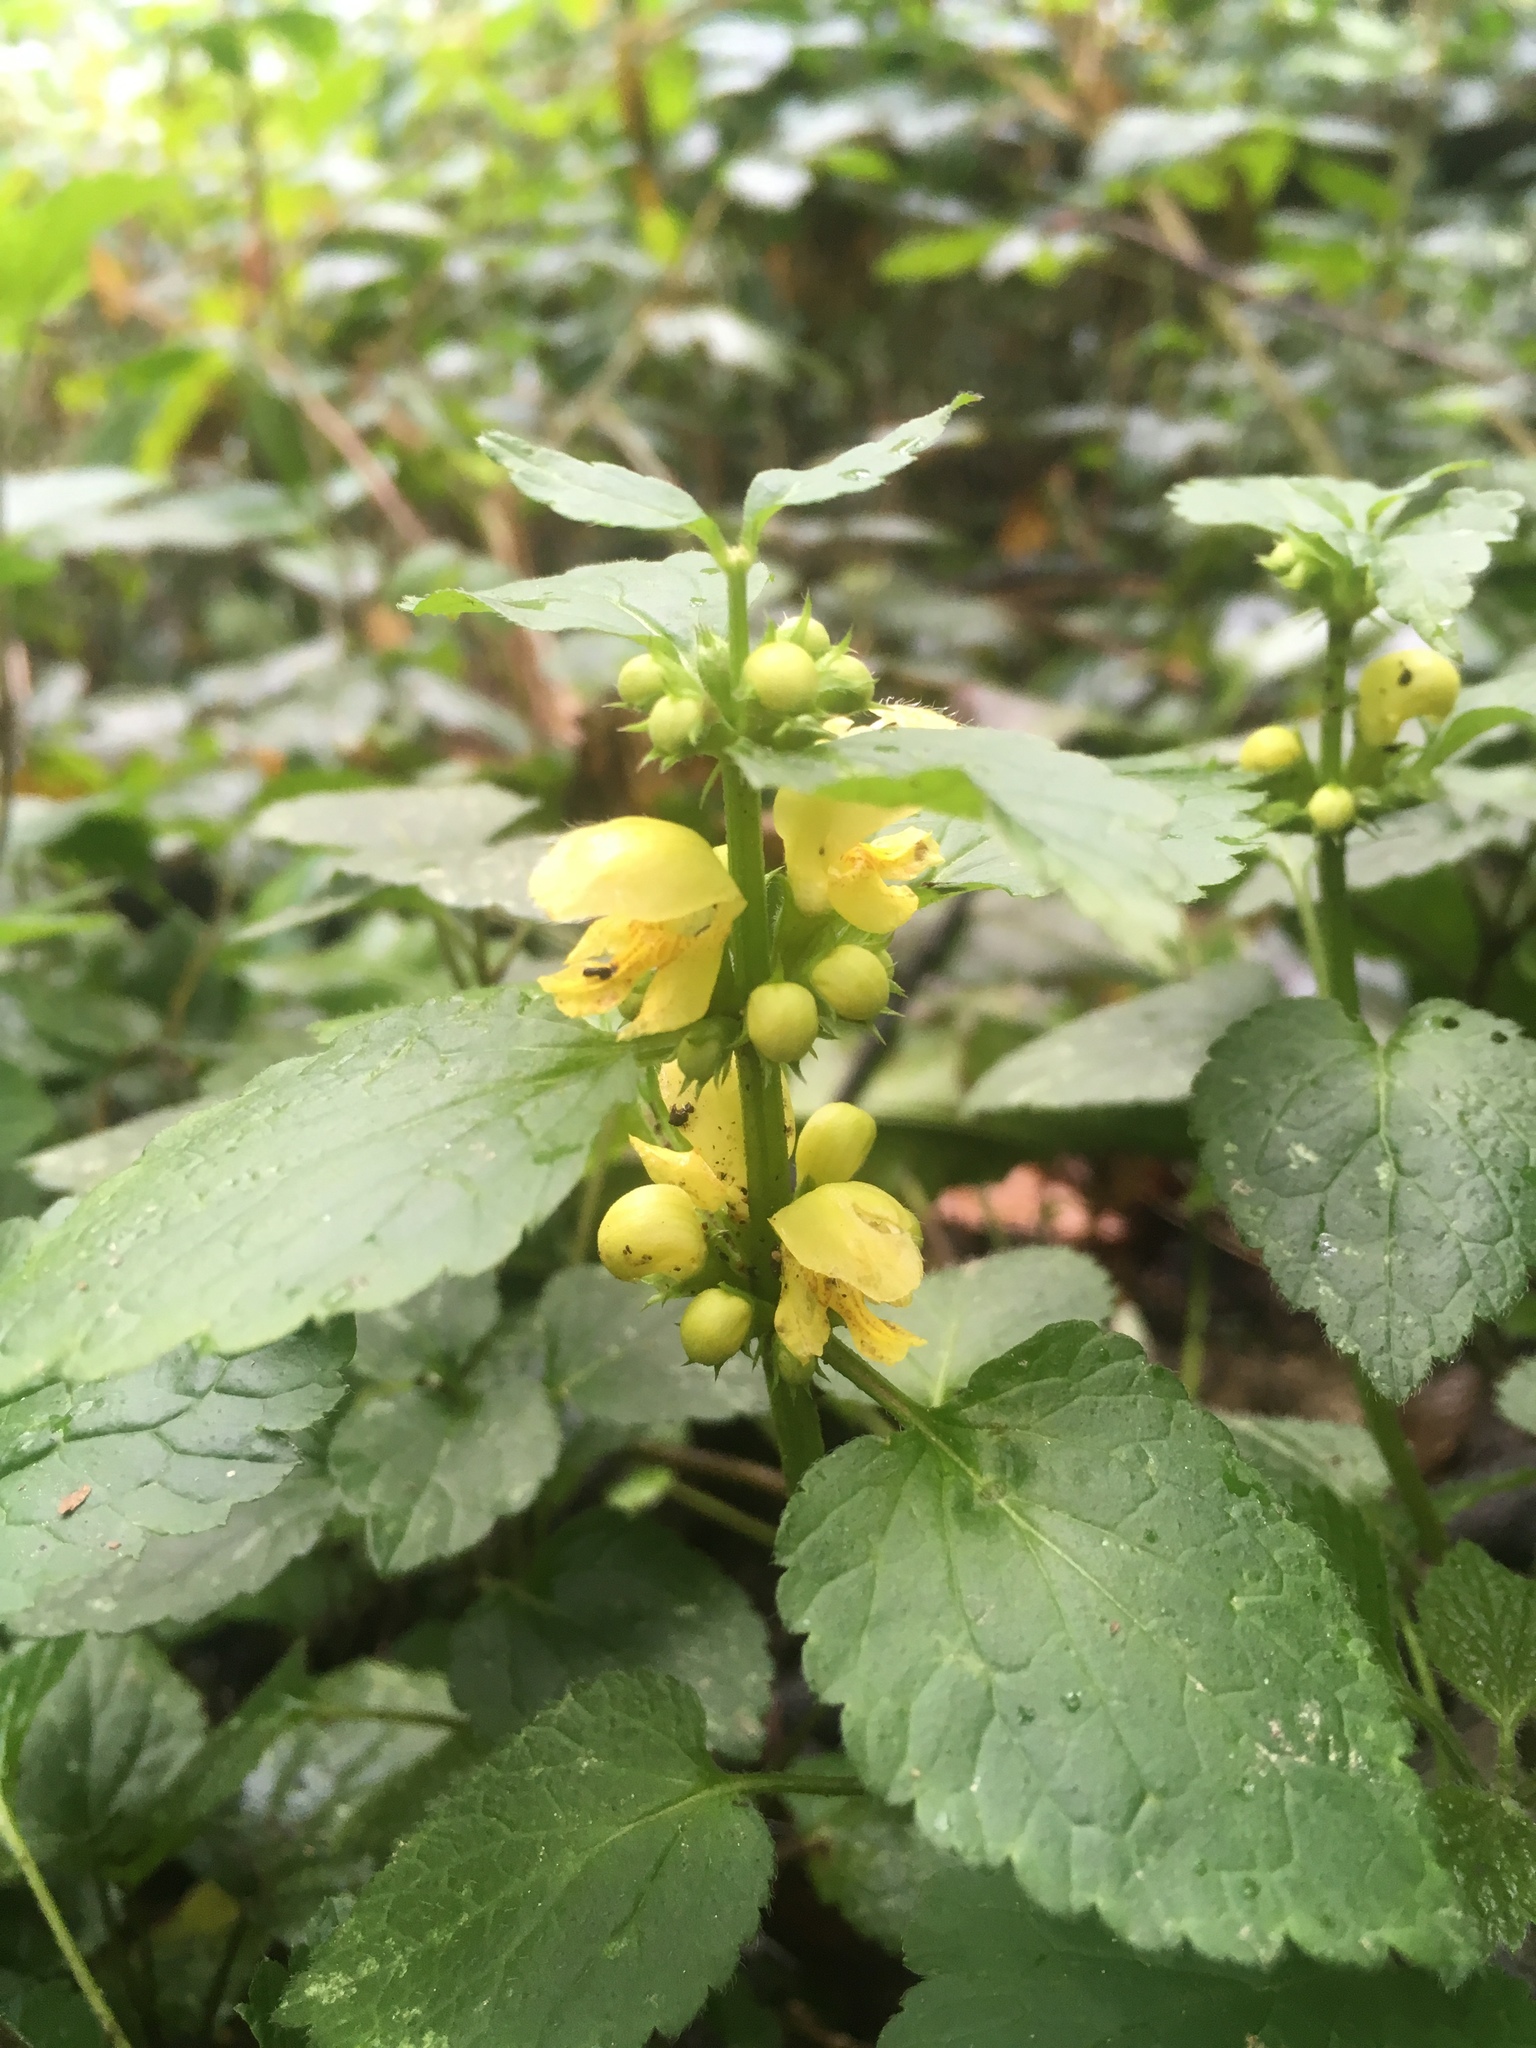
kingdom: Plantae
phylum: Tracheophyta
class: Magnoliopsida
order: Lamiales
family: Lamiaceae
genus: Lamium
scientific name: Lamium galeobdolon
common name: Yellow archangel
